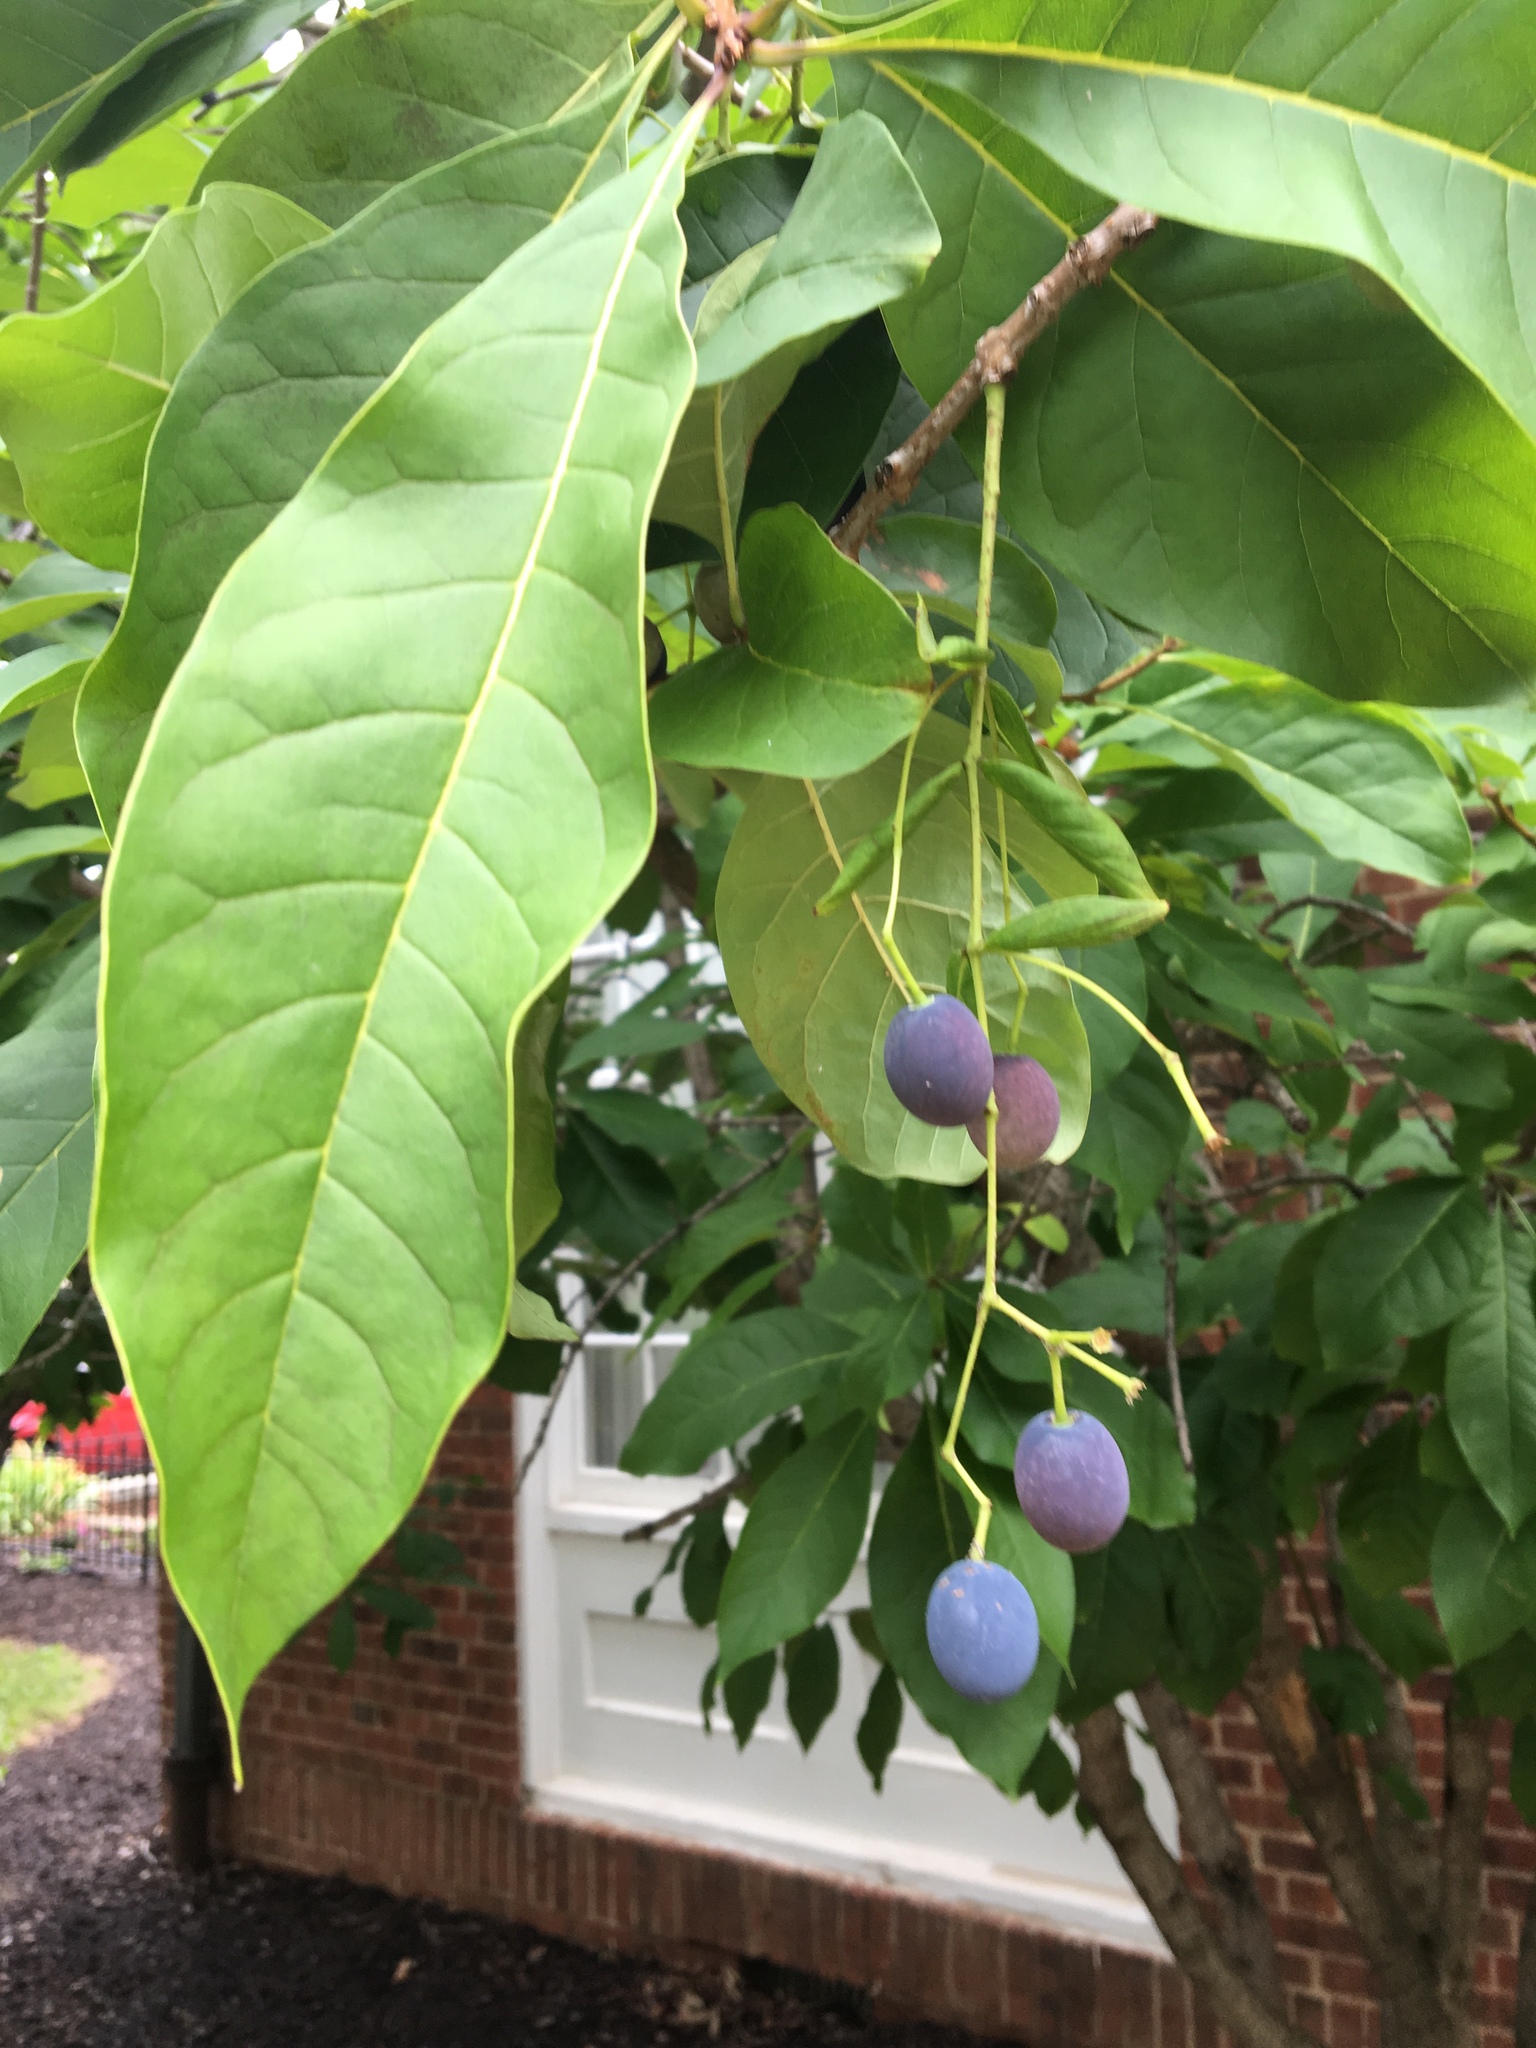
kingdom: Plantae
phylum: Tracheophyta
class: Magnoliopsida
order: Lamiales
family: Oleaceae
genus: Chionanthus
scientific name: Chionanthus virginicus
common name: American fringetree
